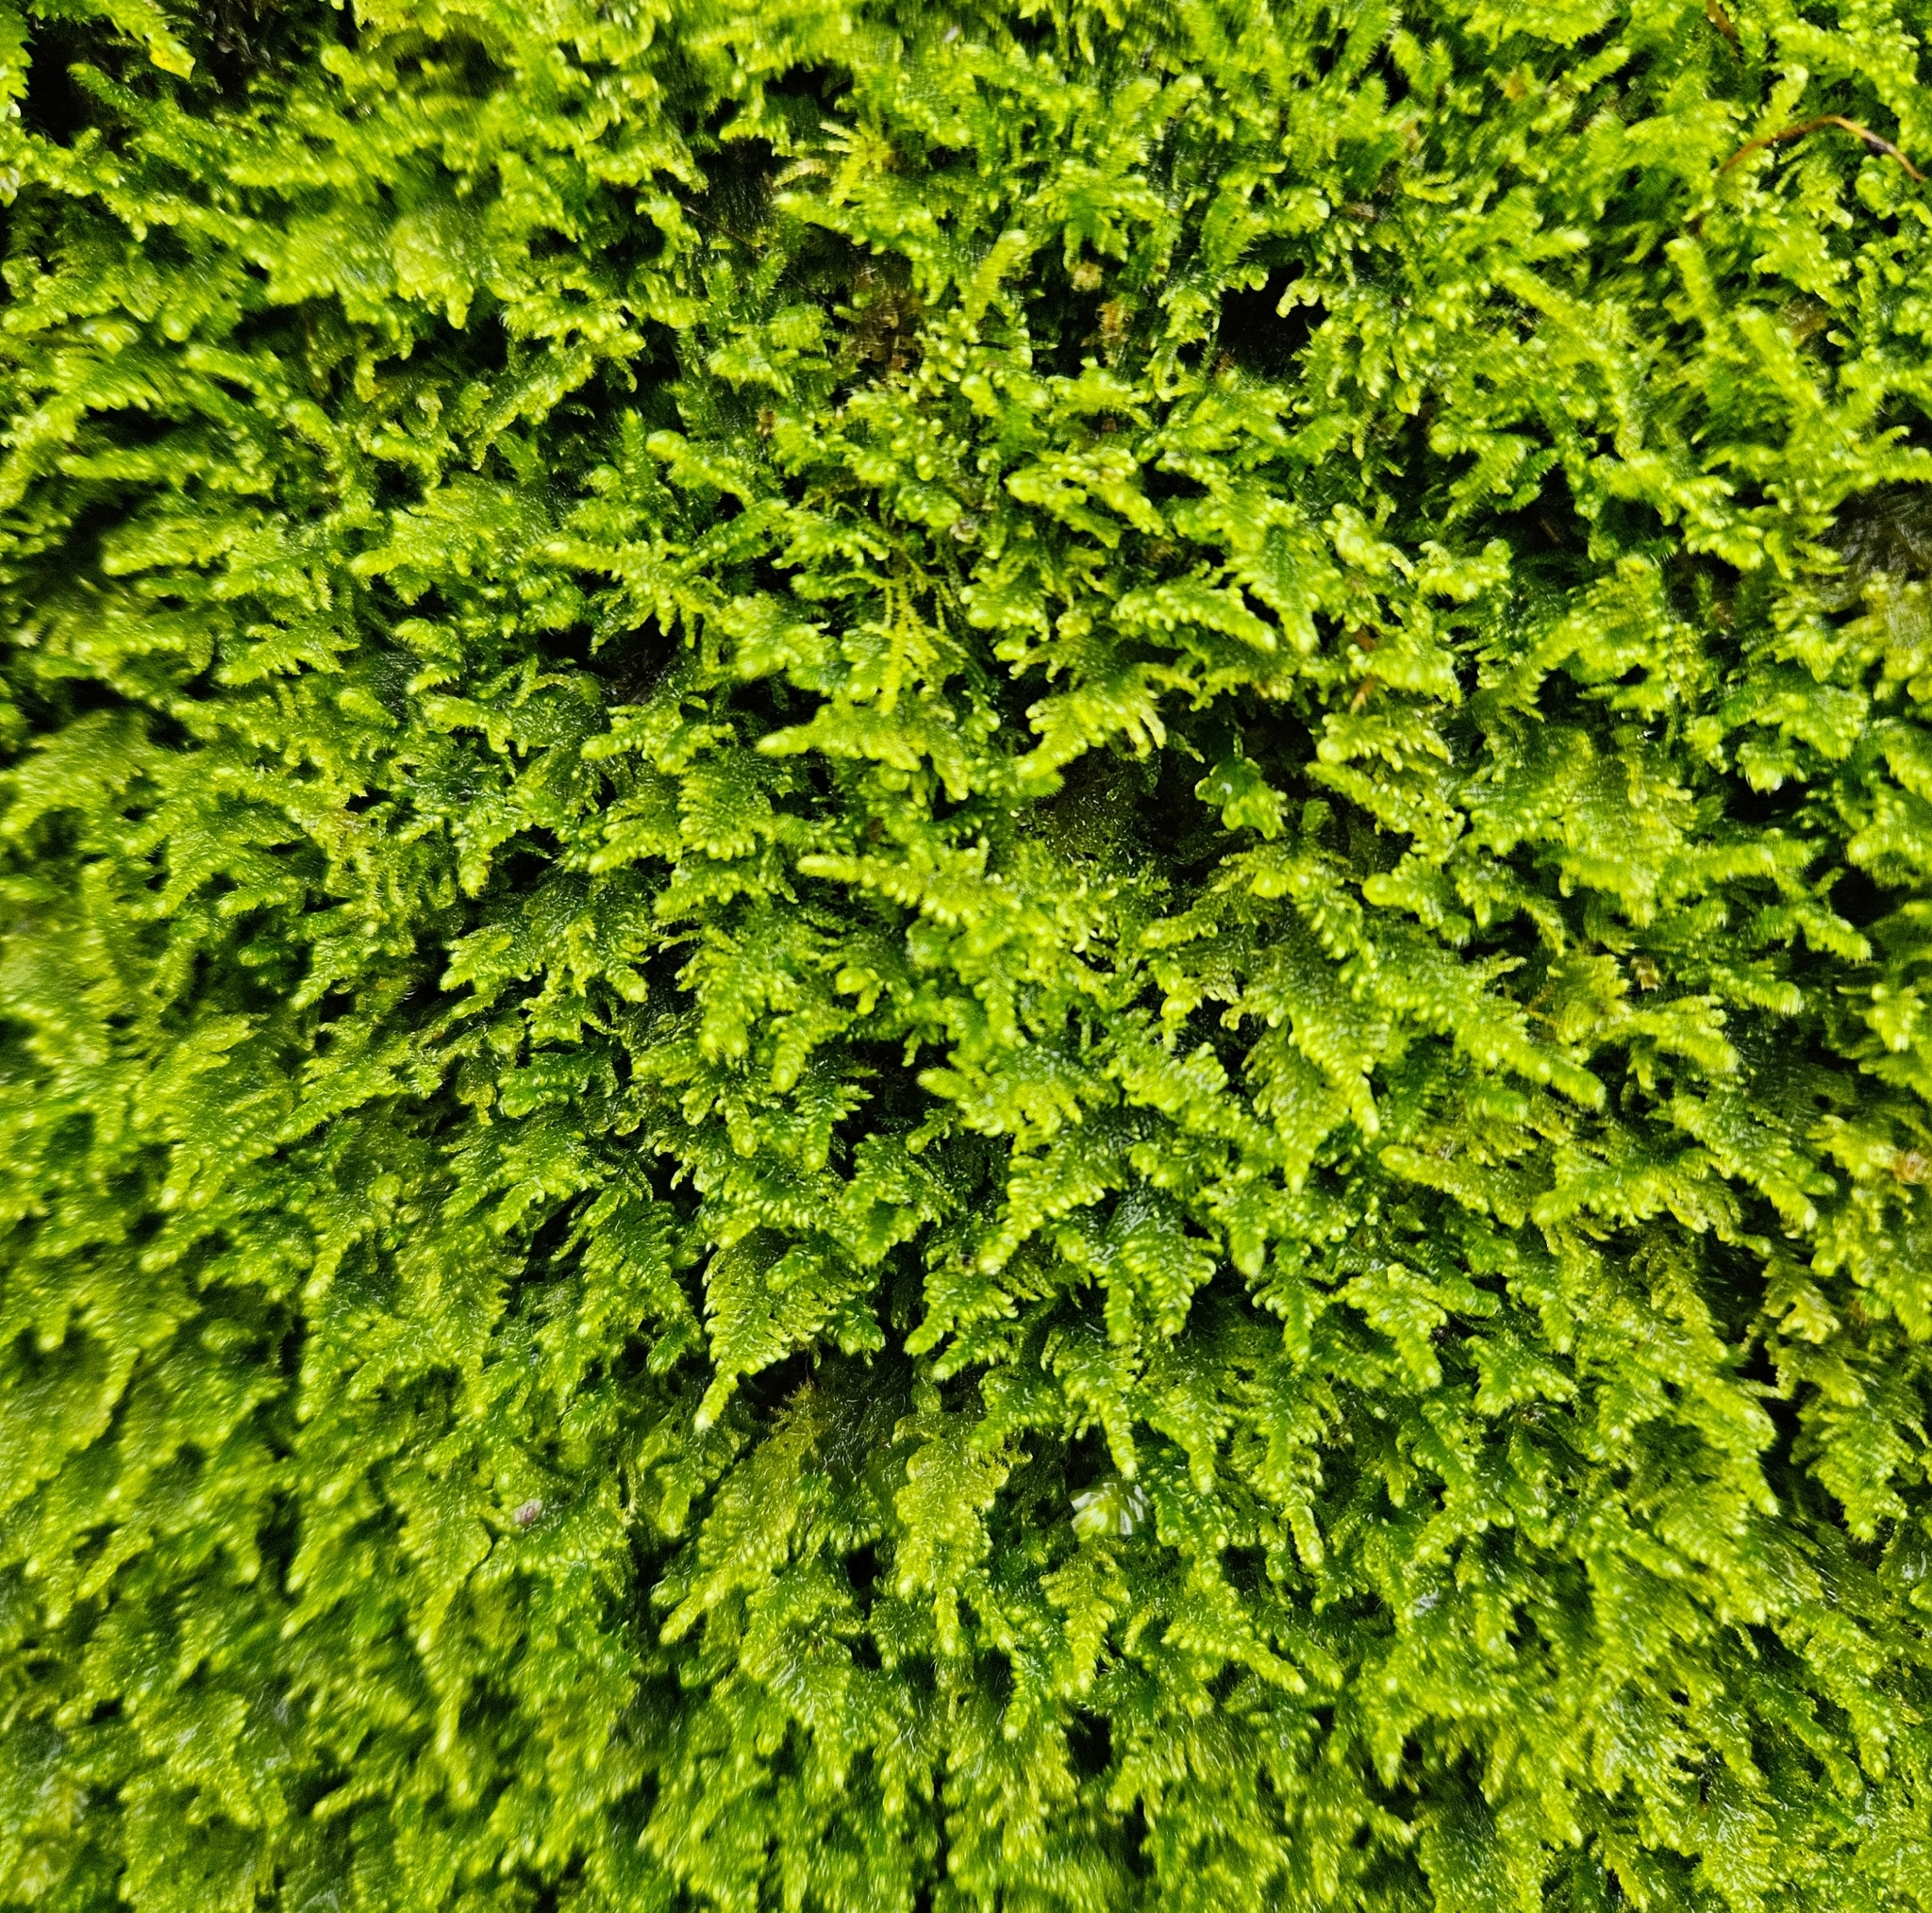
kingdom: Plantae
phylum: Bryophyta
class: Bryopsida
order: Hypnales
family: Myuriaceae
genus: Ctenidium
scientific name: Ctenidium molluscum
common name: Chalk comb-moss
